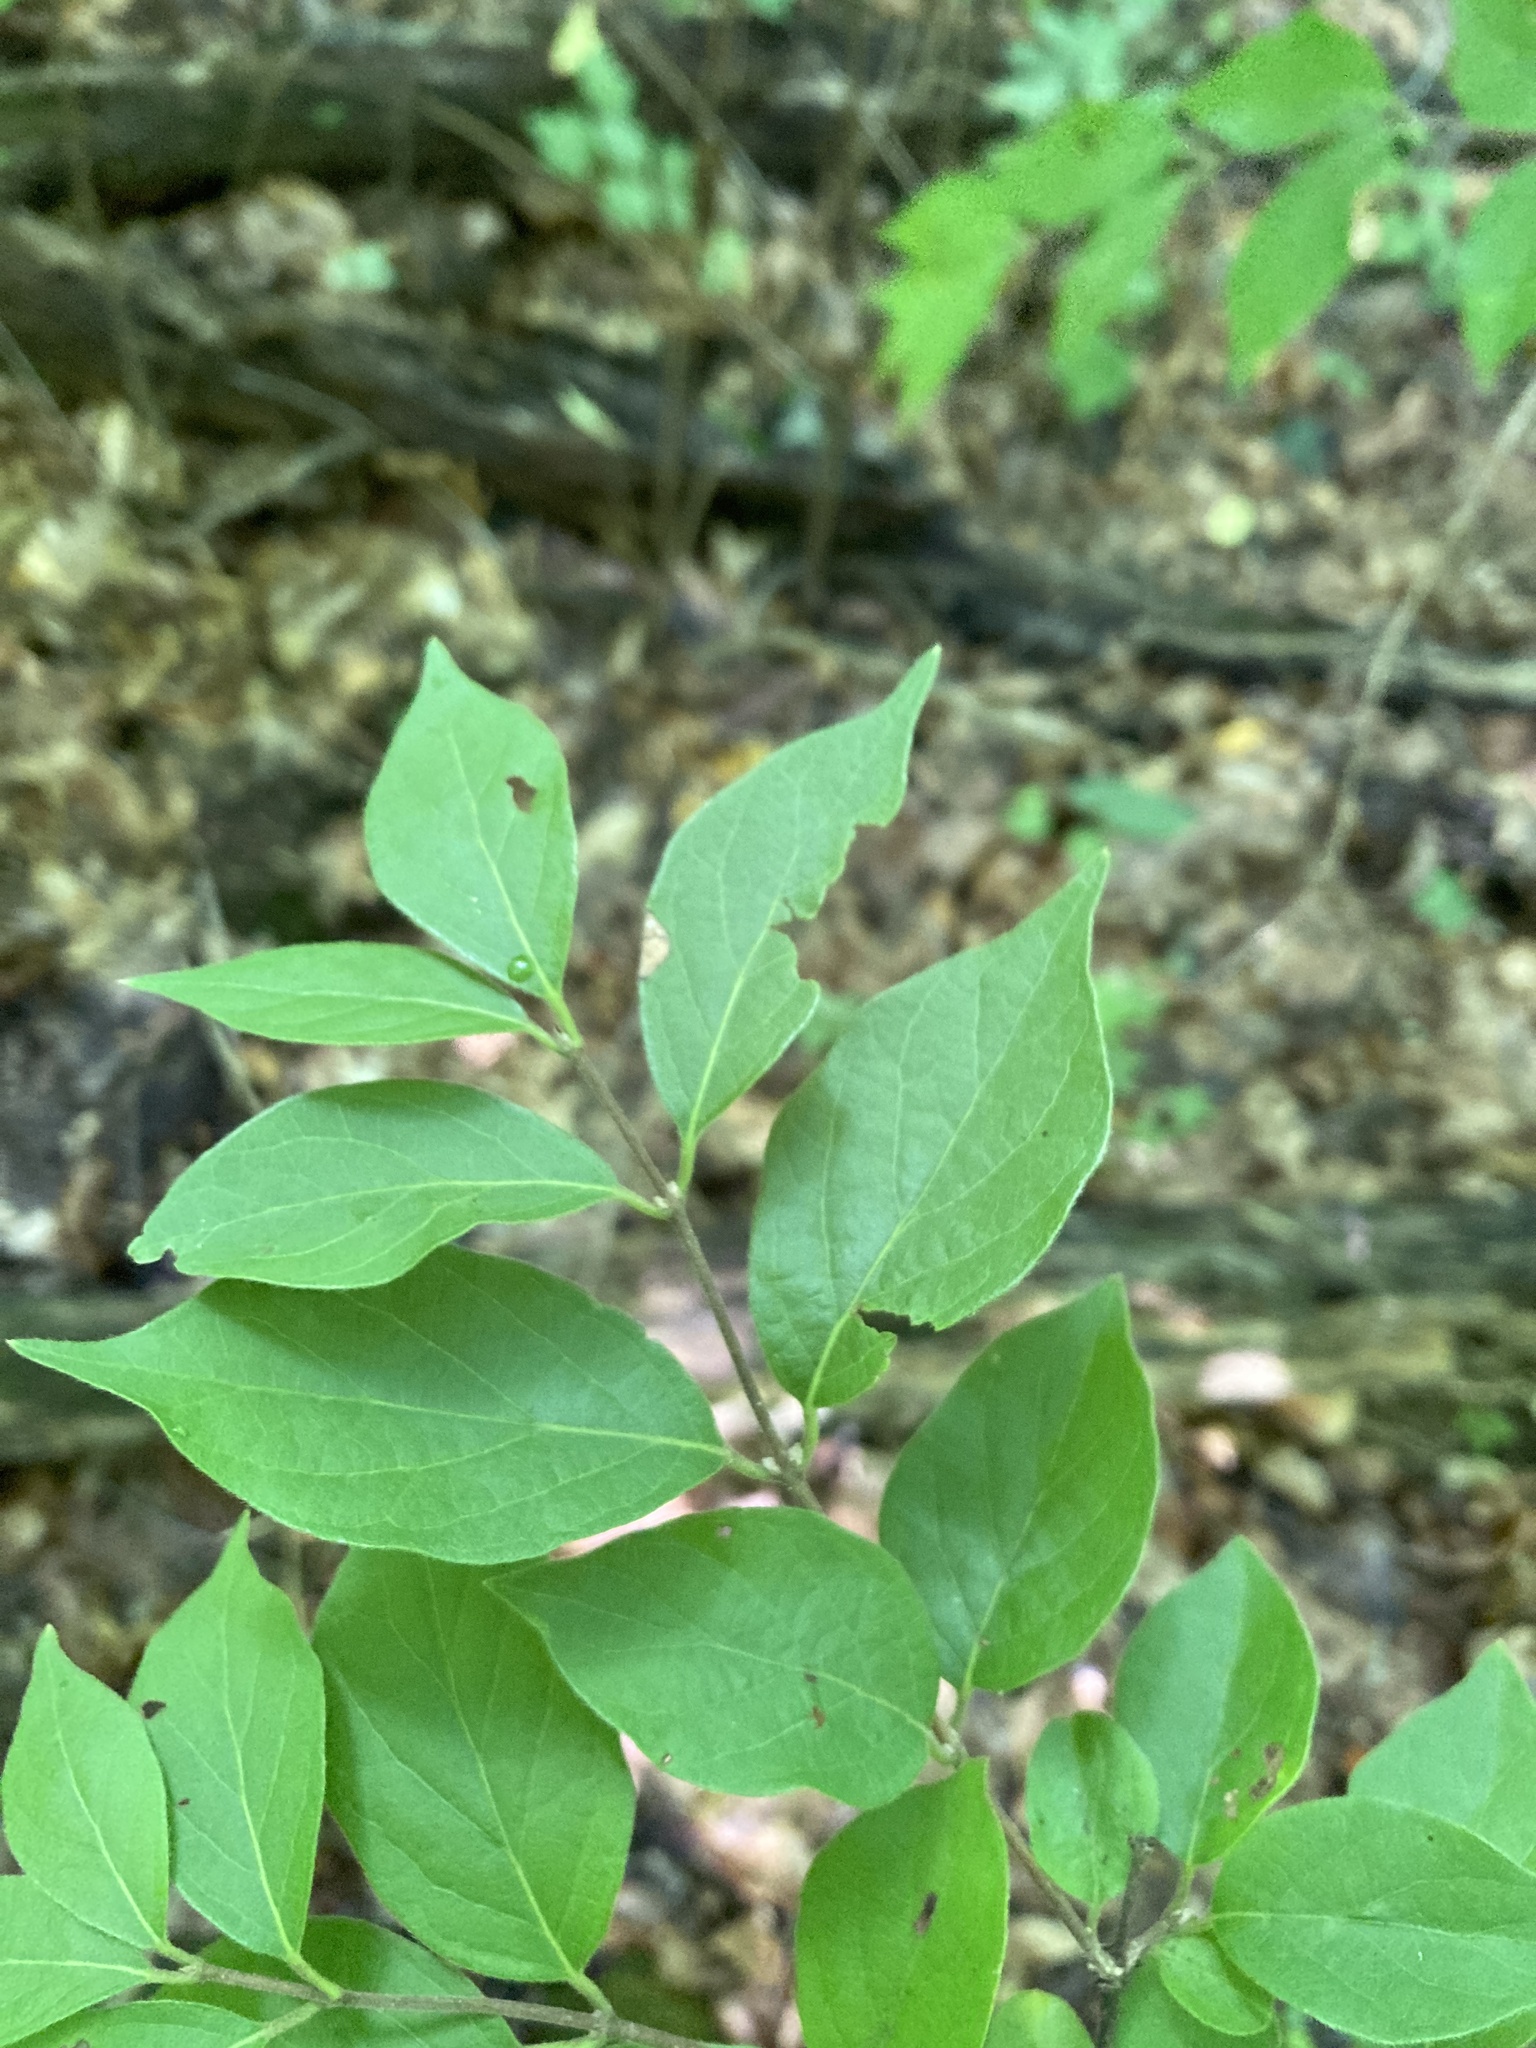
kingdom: Plantae
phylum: Tracheophyta
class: Magnoliopsida
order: Dipsacales
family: Caprifoliaceae
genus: Lonicera
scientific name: Lonicera maackii
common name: Amur honeysuckle
